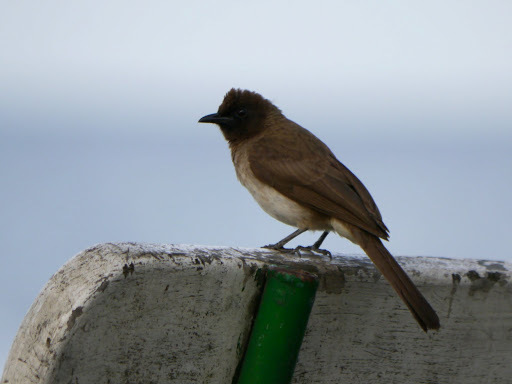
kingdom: Animalia
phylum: Chordata
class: Aves
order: Passeriformes
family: Pycnonotidae
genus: Pycnonotus
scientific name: Pycnonotus barbatus
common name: Common bulbul
